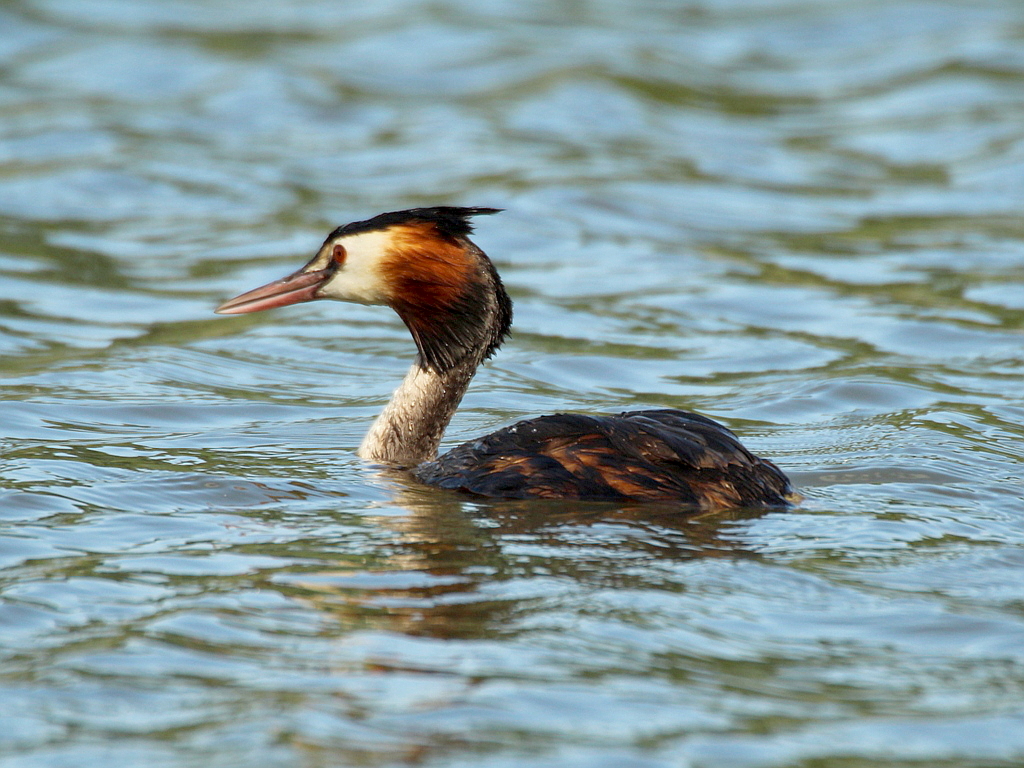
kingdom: Animalia
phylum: Chordata
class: Aves
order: Podicipediformes
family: Podicipedidae
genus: Podiceps
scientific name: Podiceps cristatus
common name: Great crested grebe
